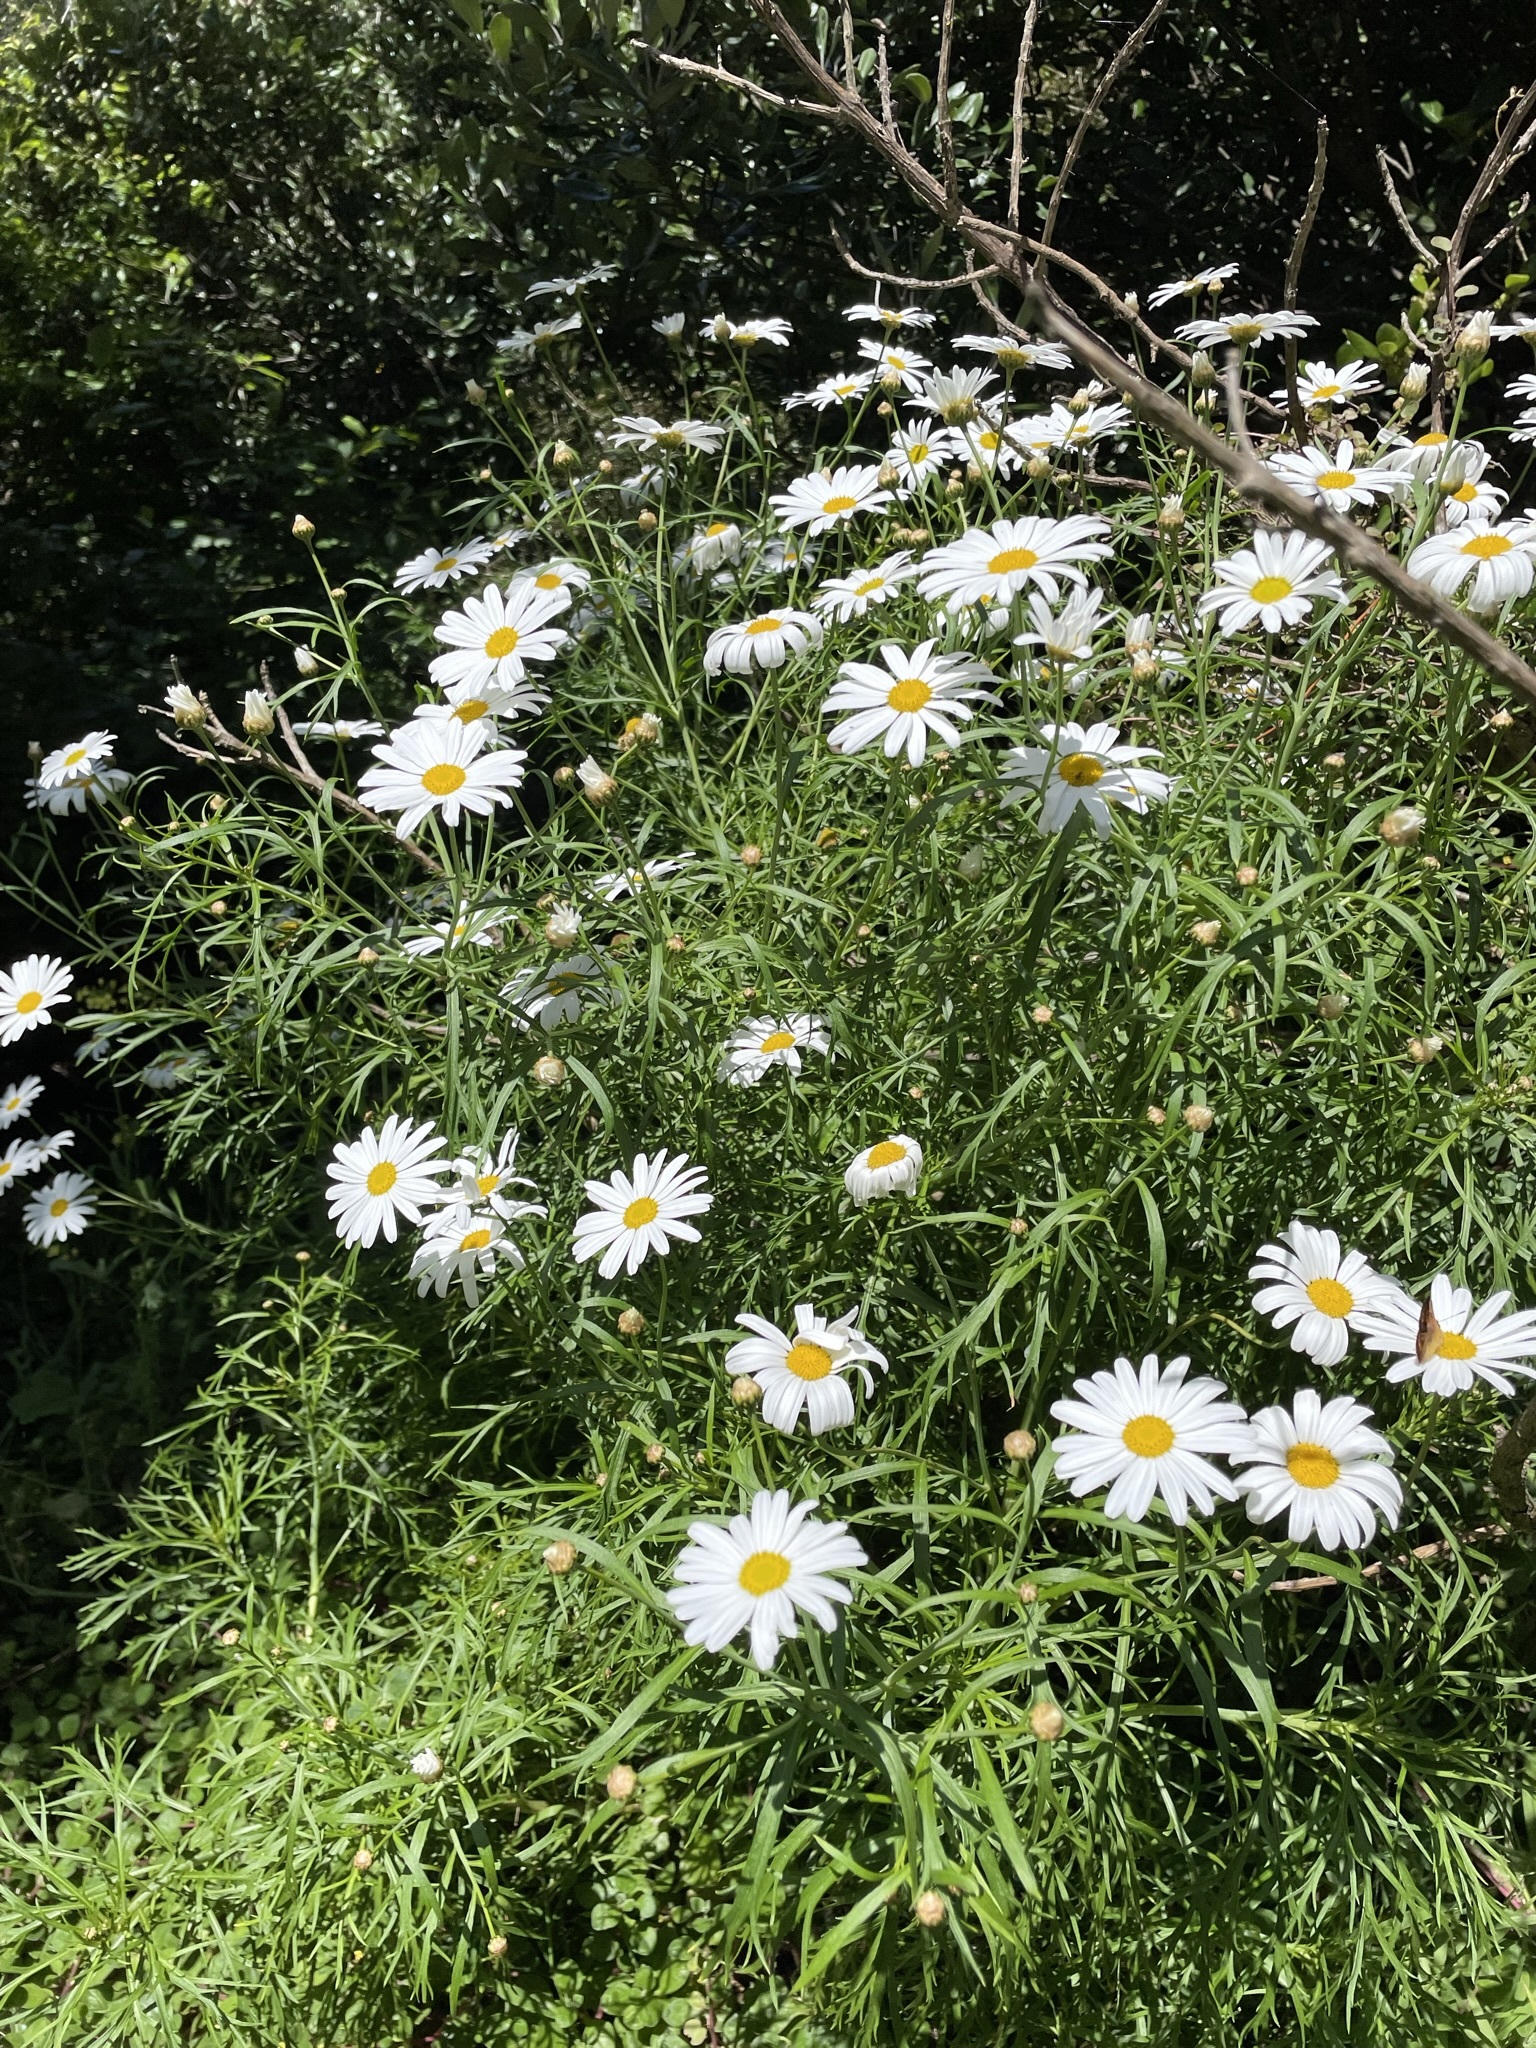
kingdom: Plantae
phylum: Tracheophyta
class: Magnoliopsida
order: Asterales
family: Asteraceae
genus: Argyranthemum
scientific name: Argyranthemum frutescens
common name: Paris daisy
